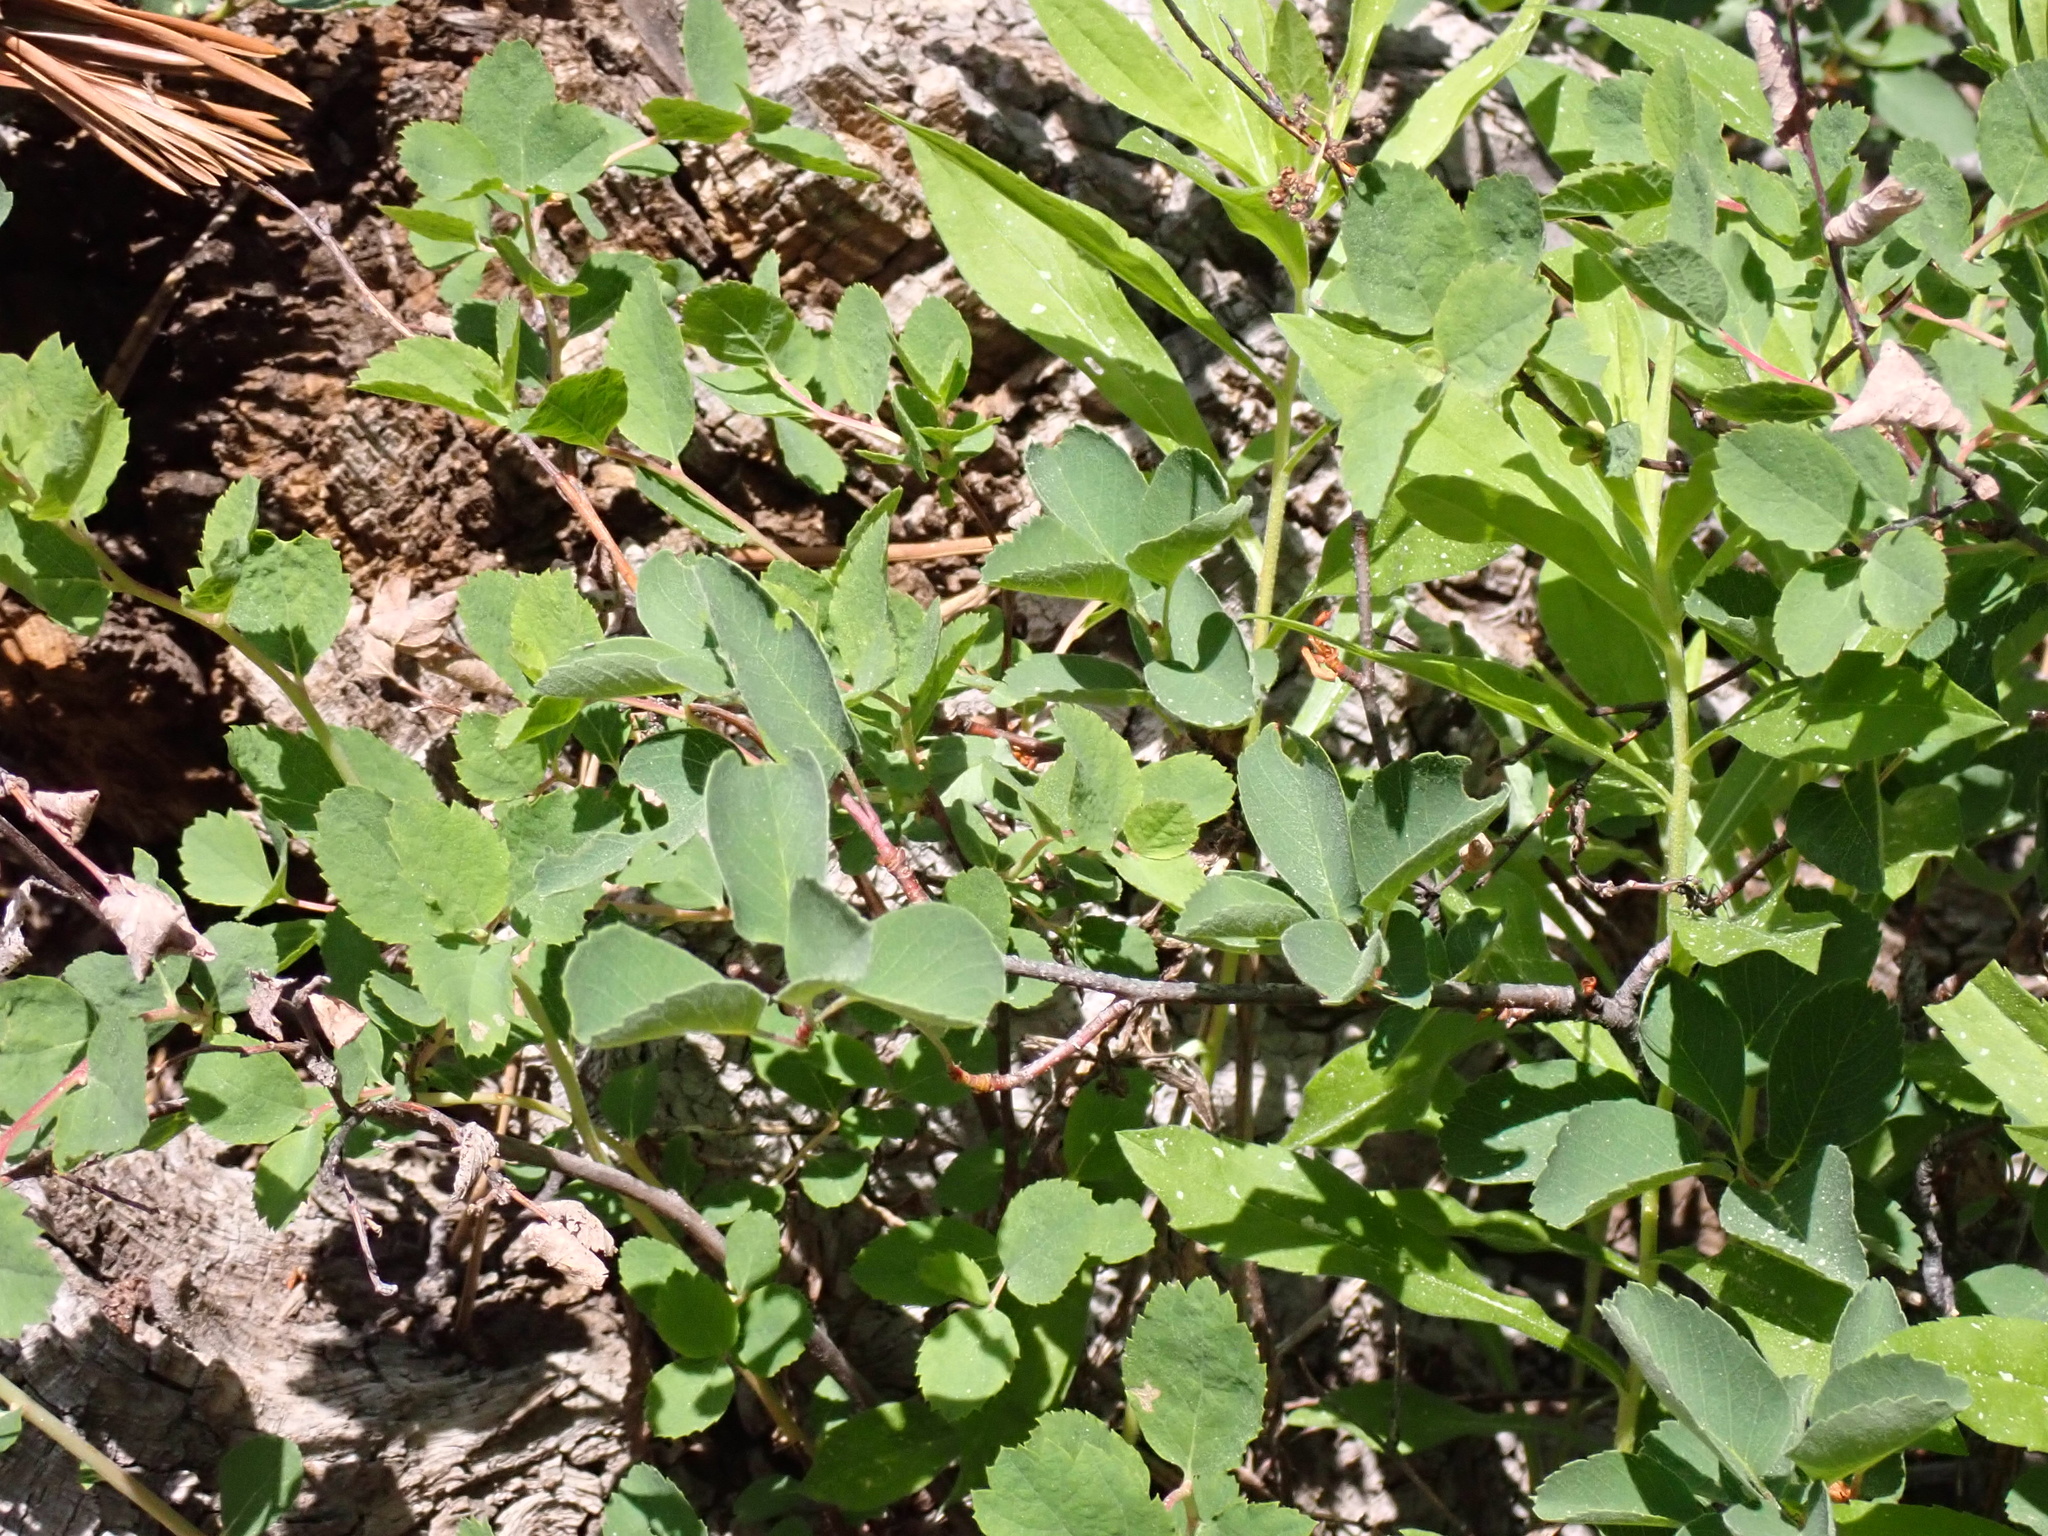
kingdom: Animalia
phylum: Arthropoda
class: Insecta
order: Lepidoptera
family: Nymphalidae
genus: Limenitis
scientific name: Limenitis lorquini
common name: Lorquin's admiral
